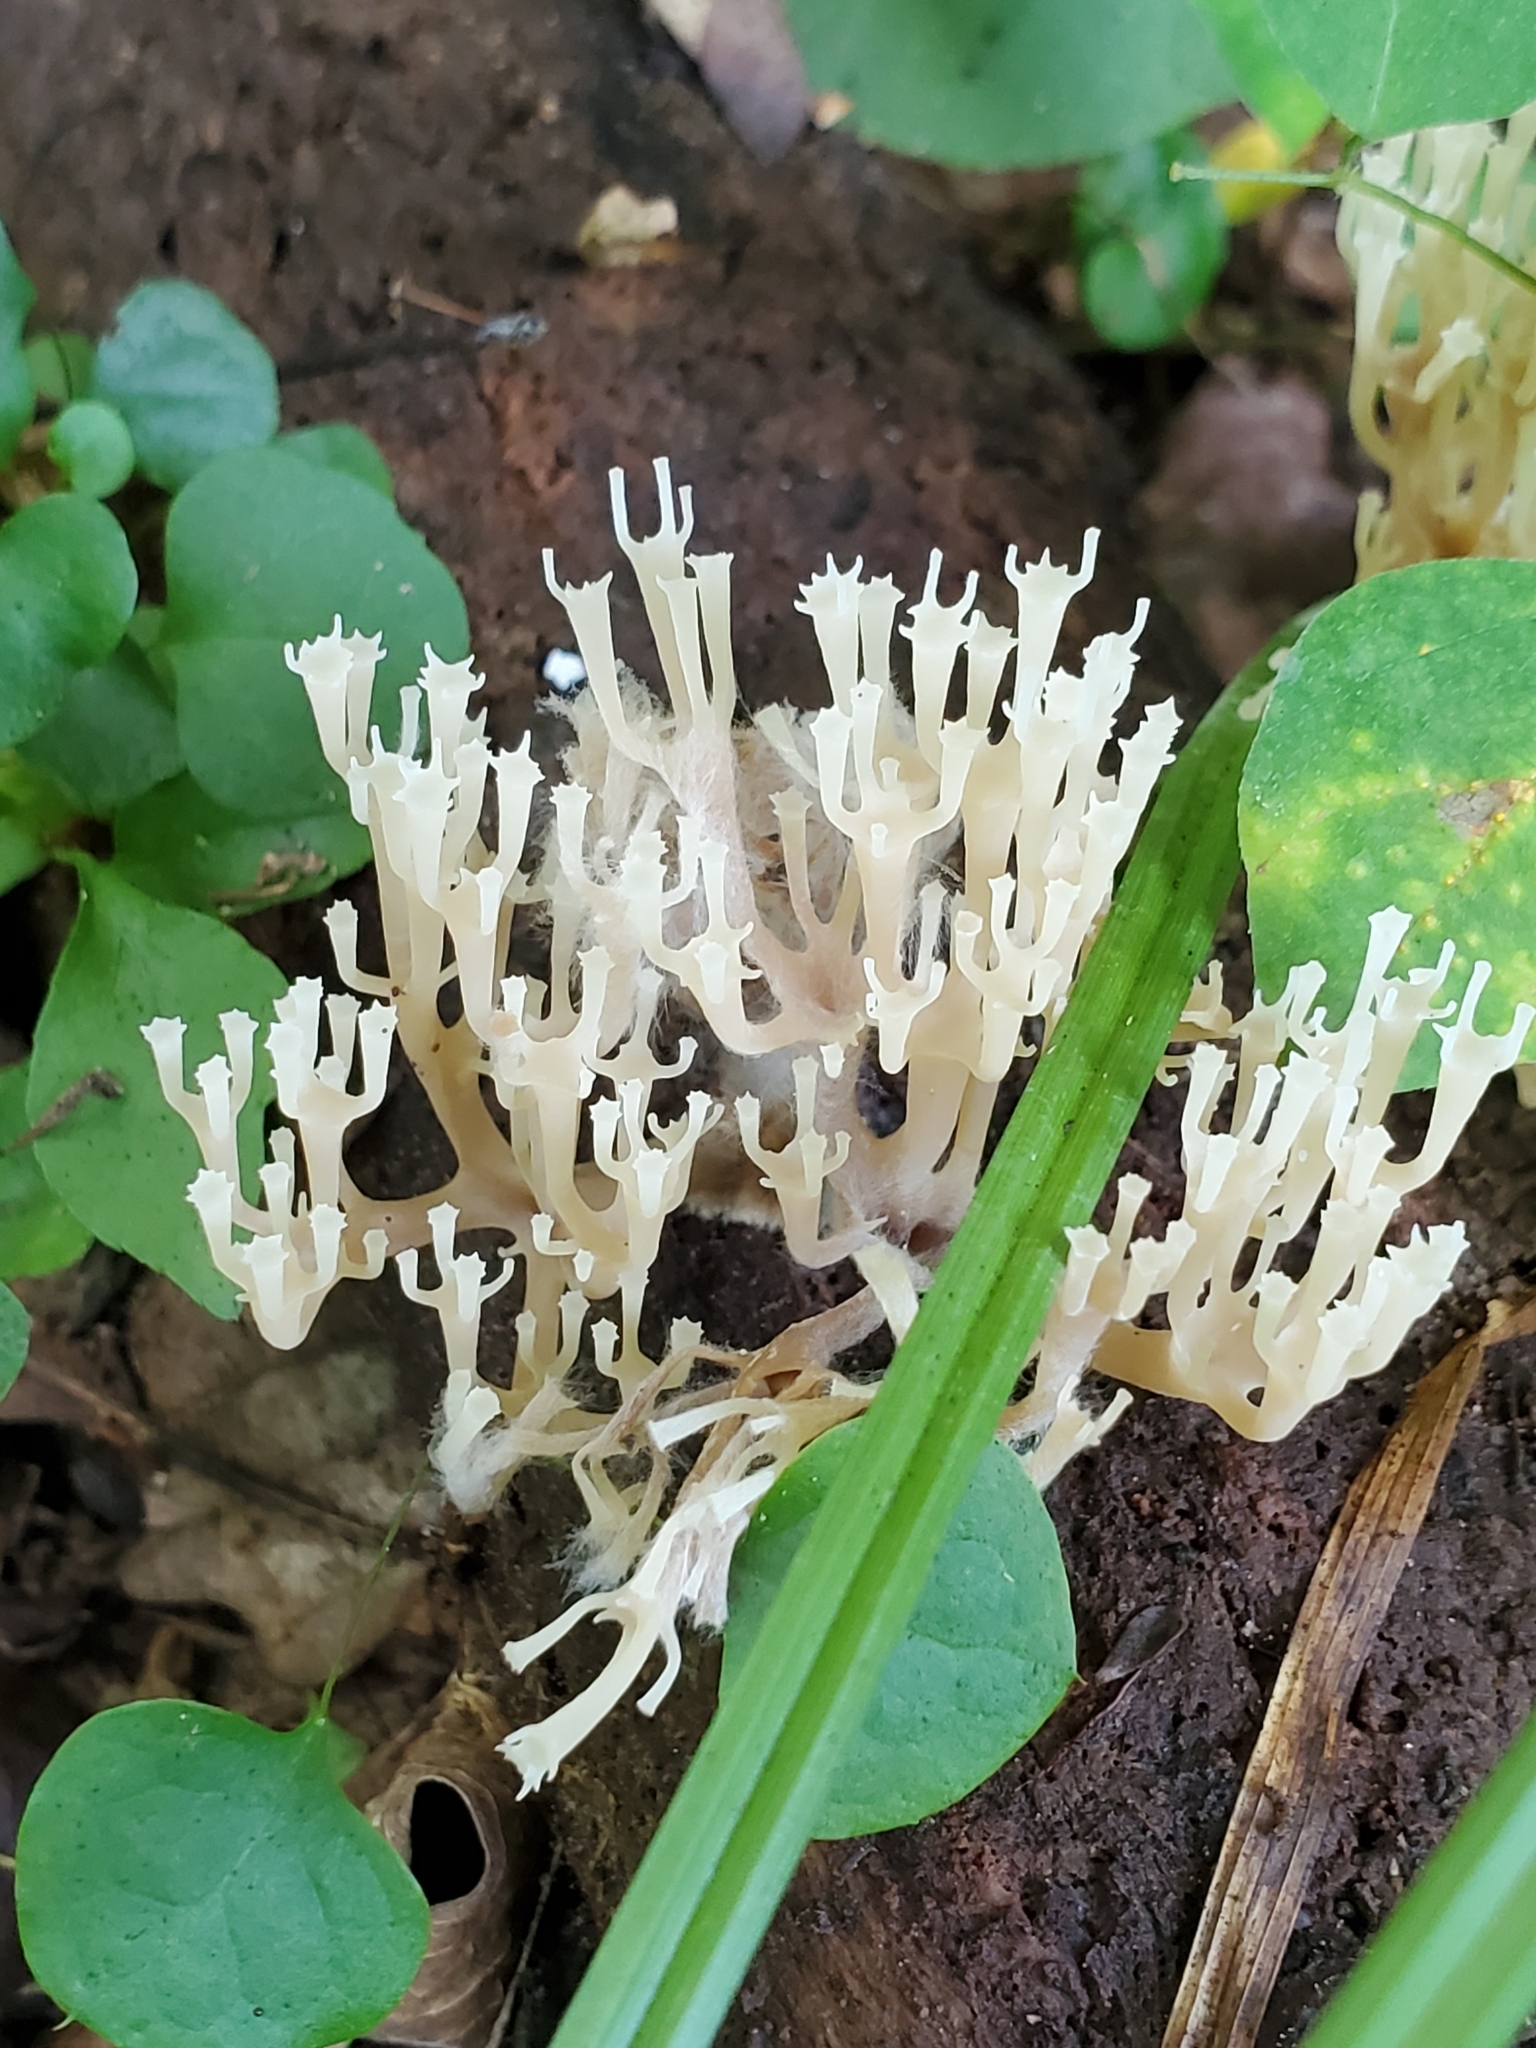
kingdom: Fungi
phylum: Basidiomycota
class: Agaricomycetes
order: Russulales
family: Auriscalpiaceae
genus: Artomyces
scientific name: Artomyces pyxidatus
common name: Crown-tipped coral fungus
